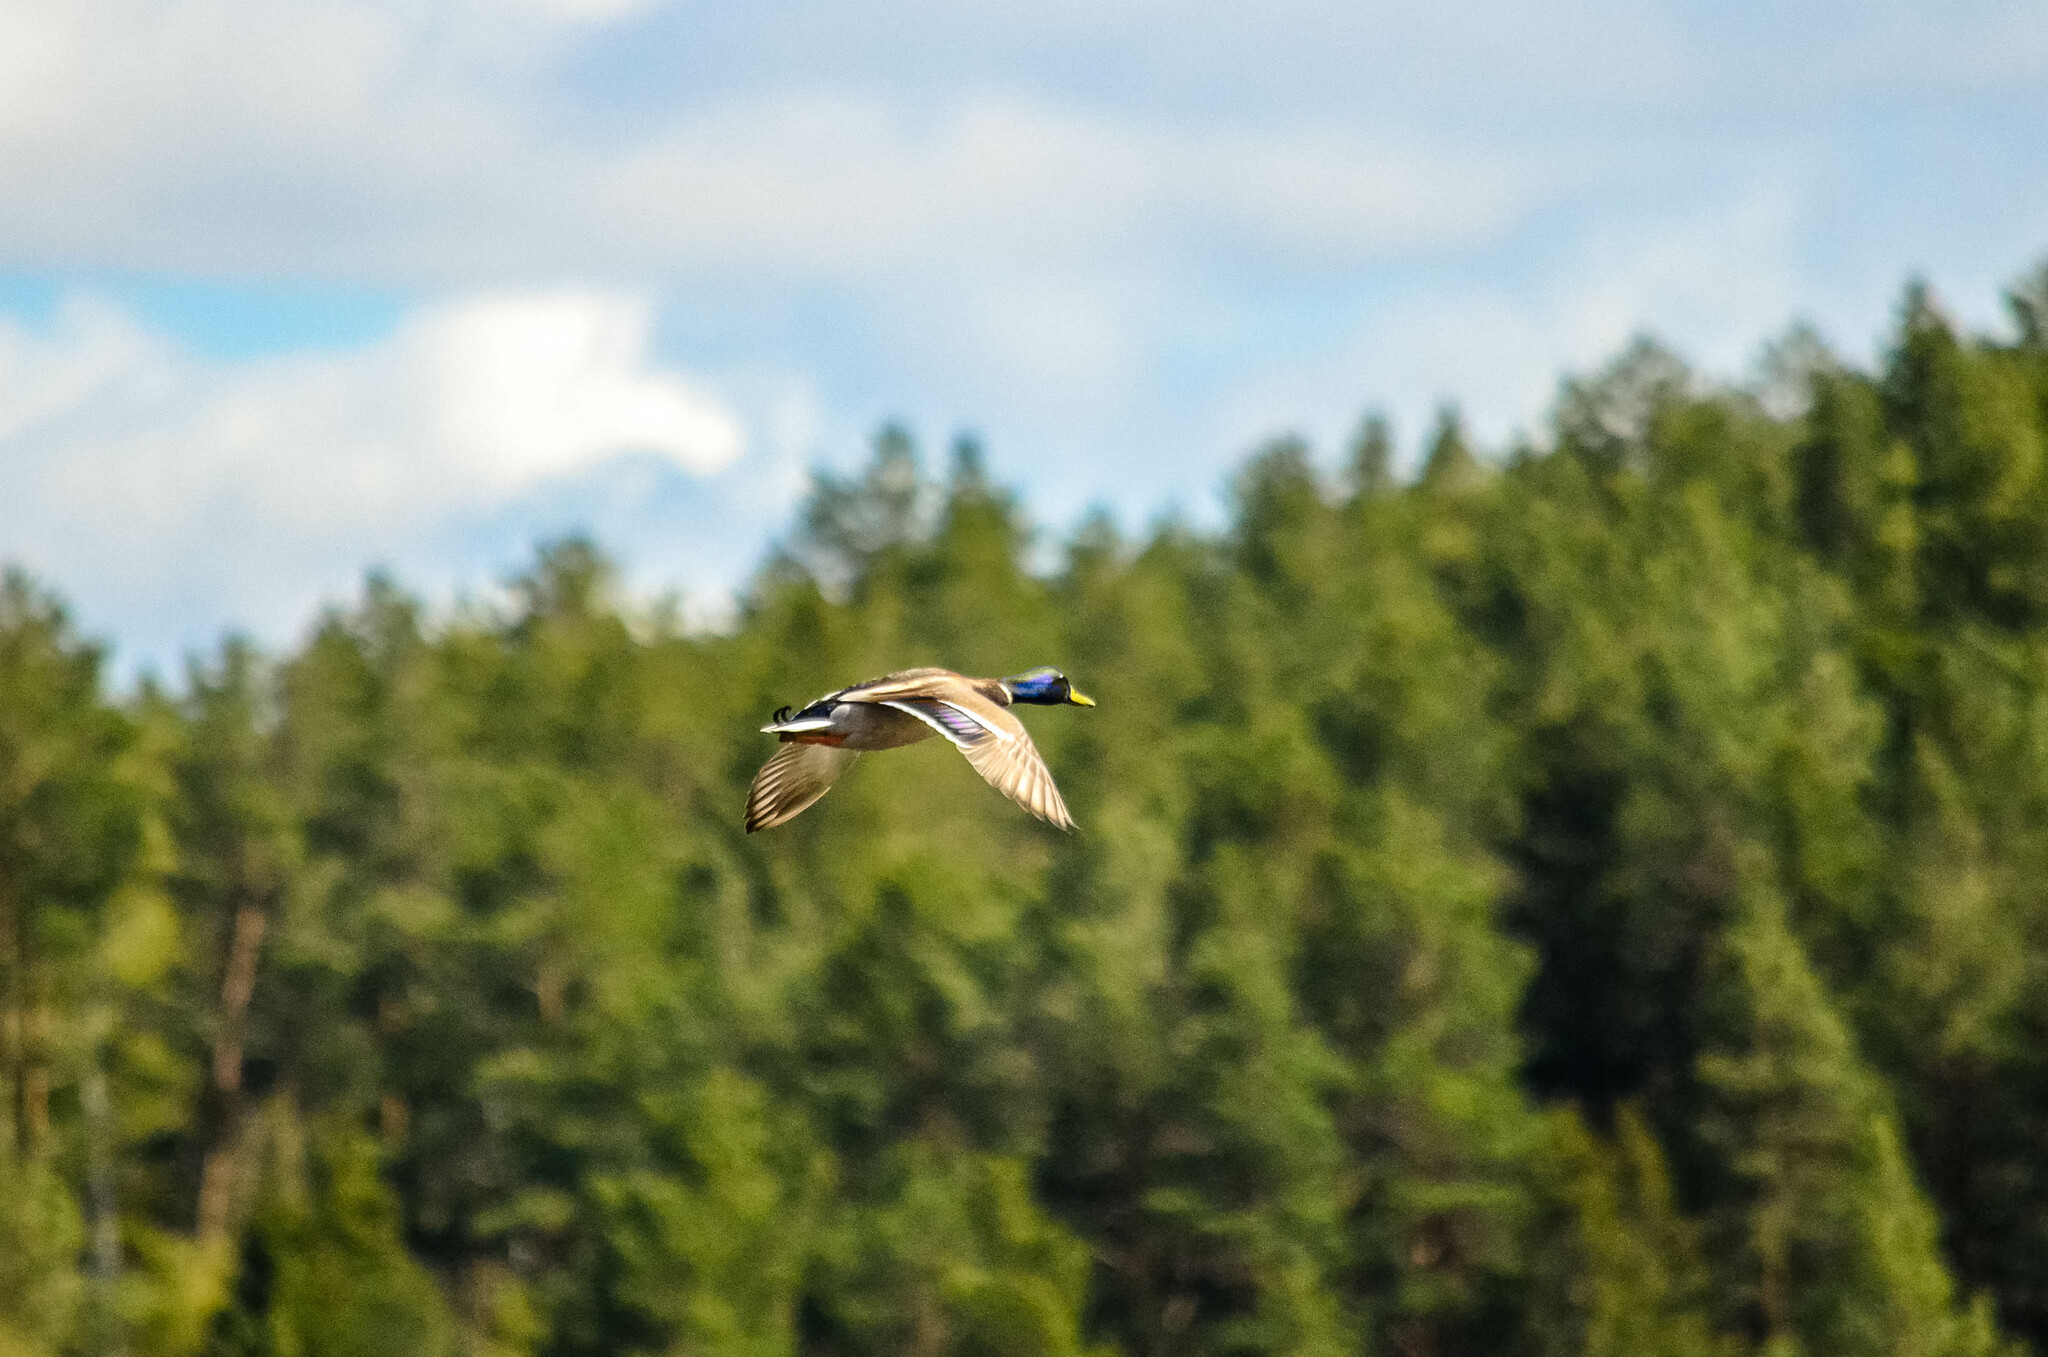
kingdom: Animalia
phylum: Chordata
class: Aves
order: Anseriformes
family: Anatidae
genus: Anas
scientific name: Anas platyrhynchos
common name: Mallard
